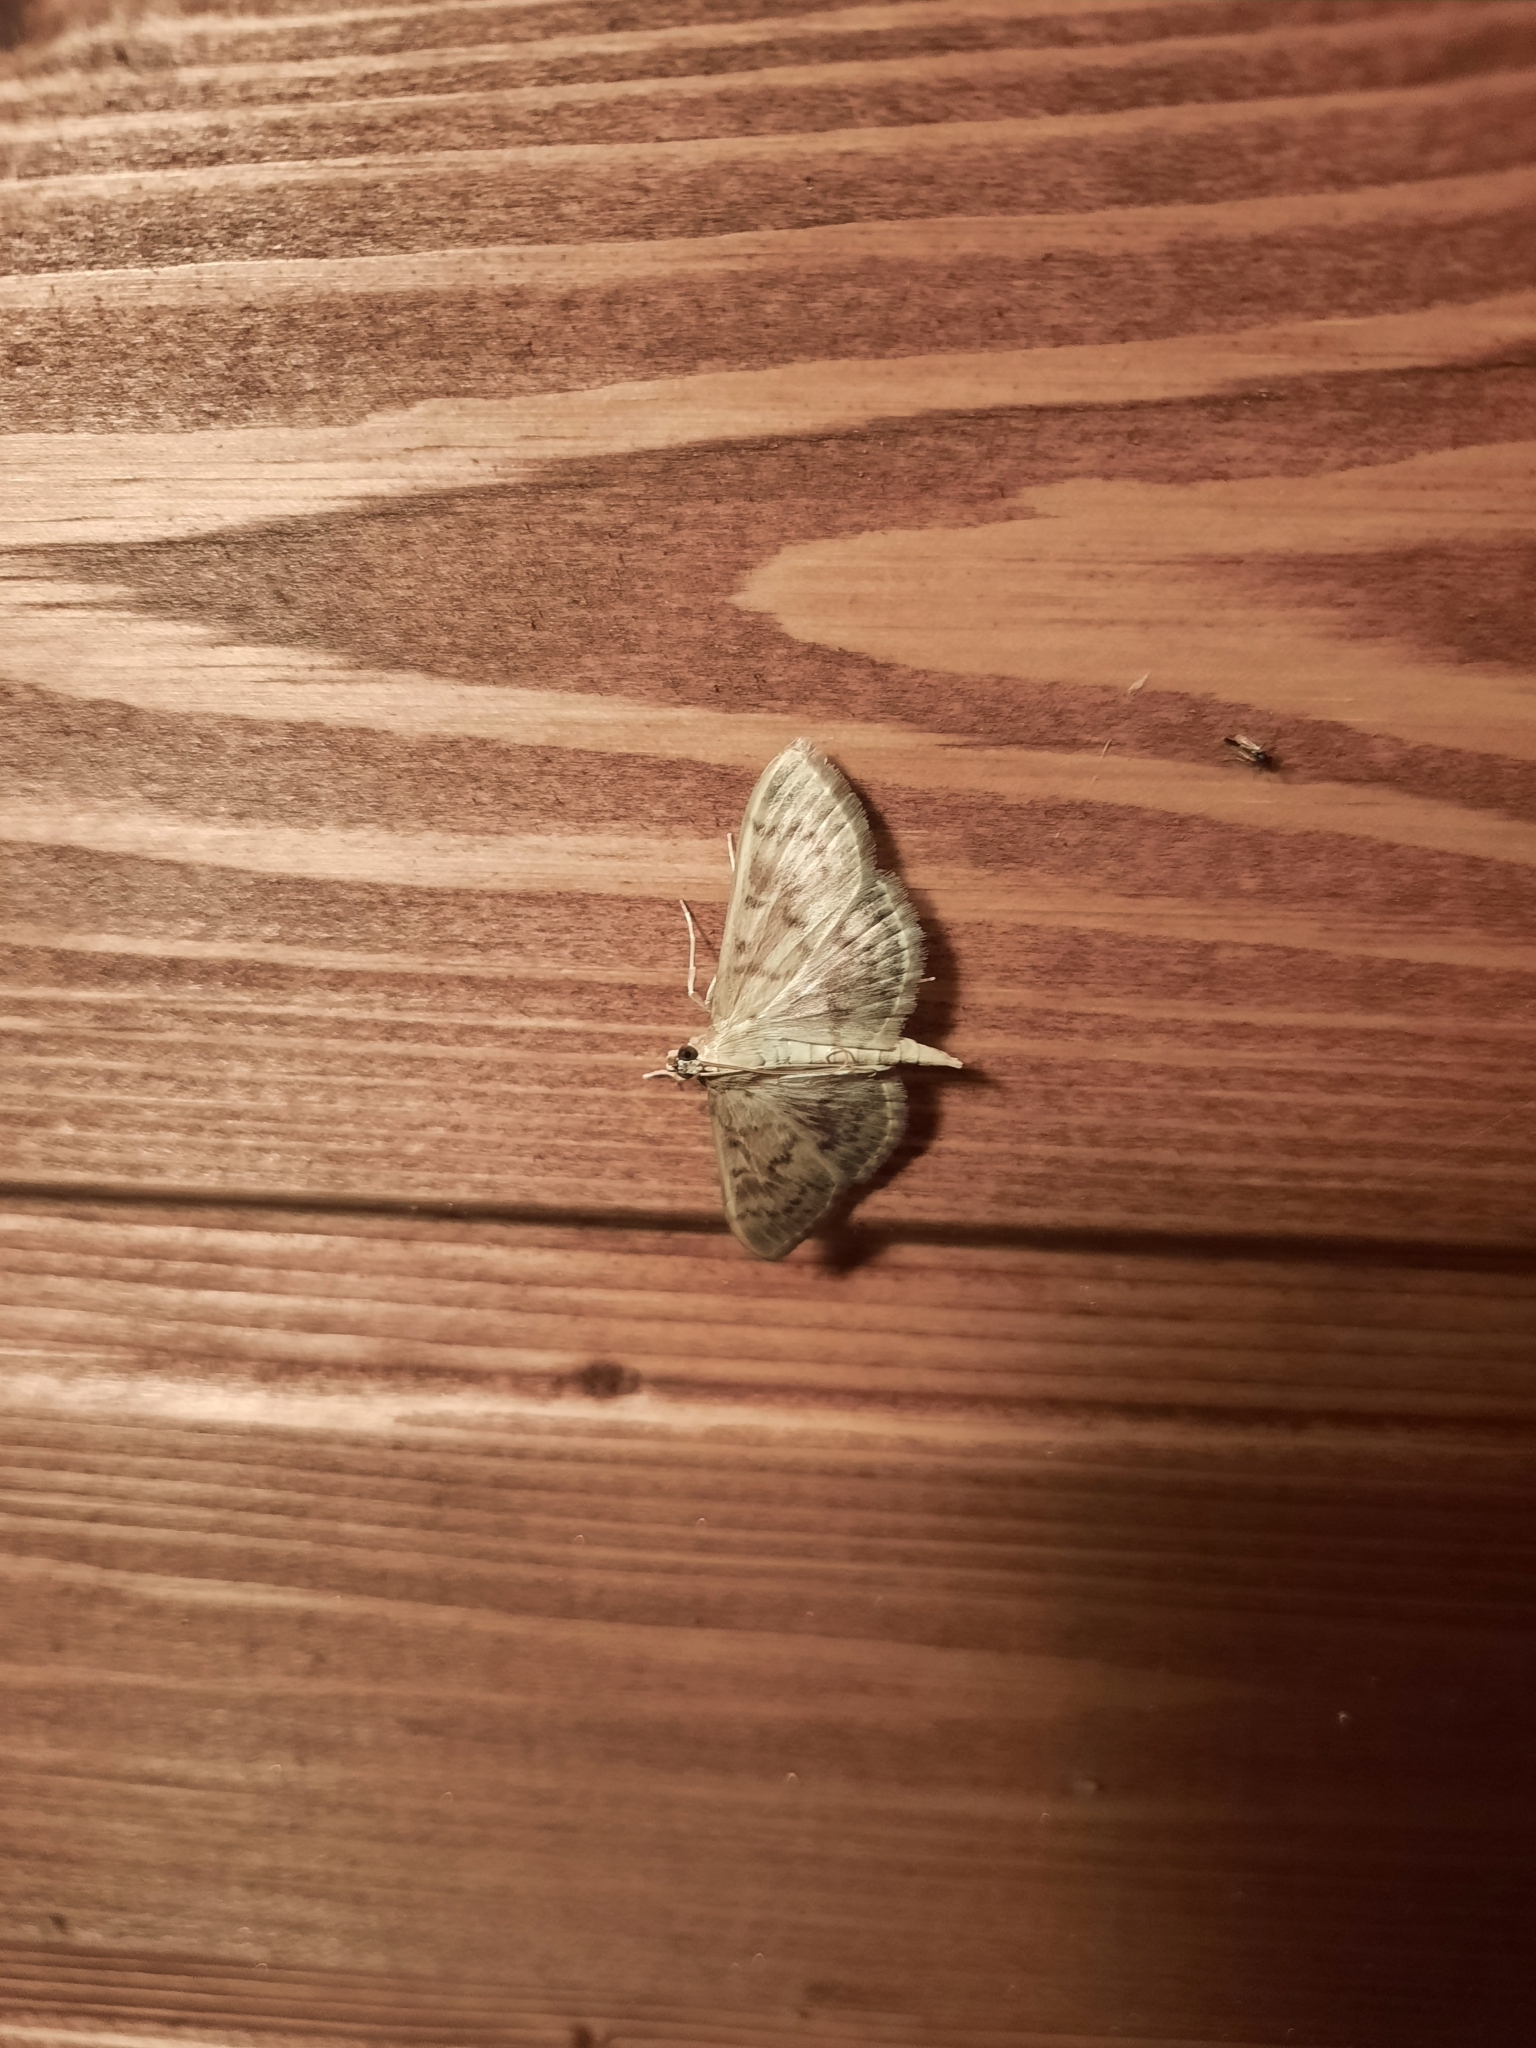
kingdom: Animalia
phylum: Arthropoda
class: Insecta
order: Lepidoptera
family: Crambidae
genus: Patania
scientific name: Patania ruralis
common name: Mother of pearl
